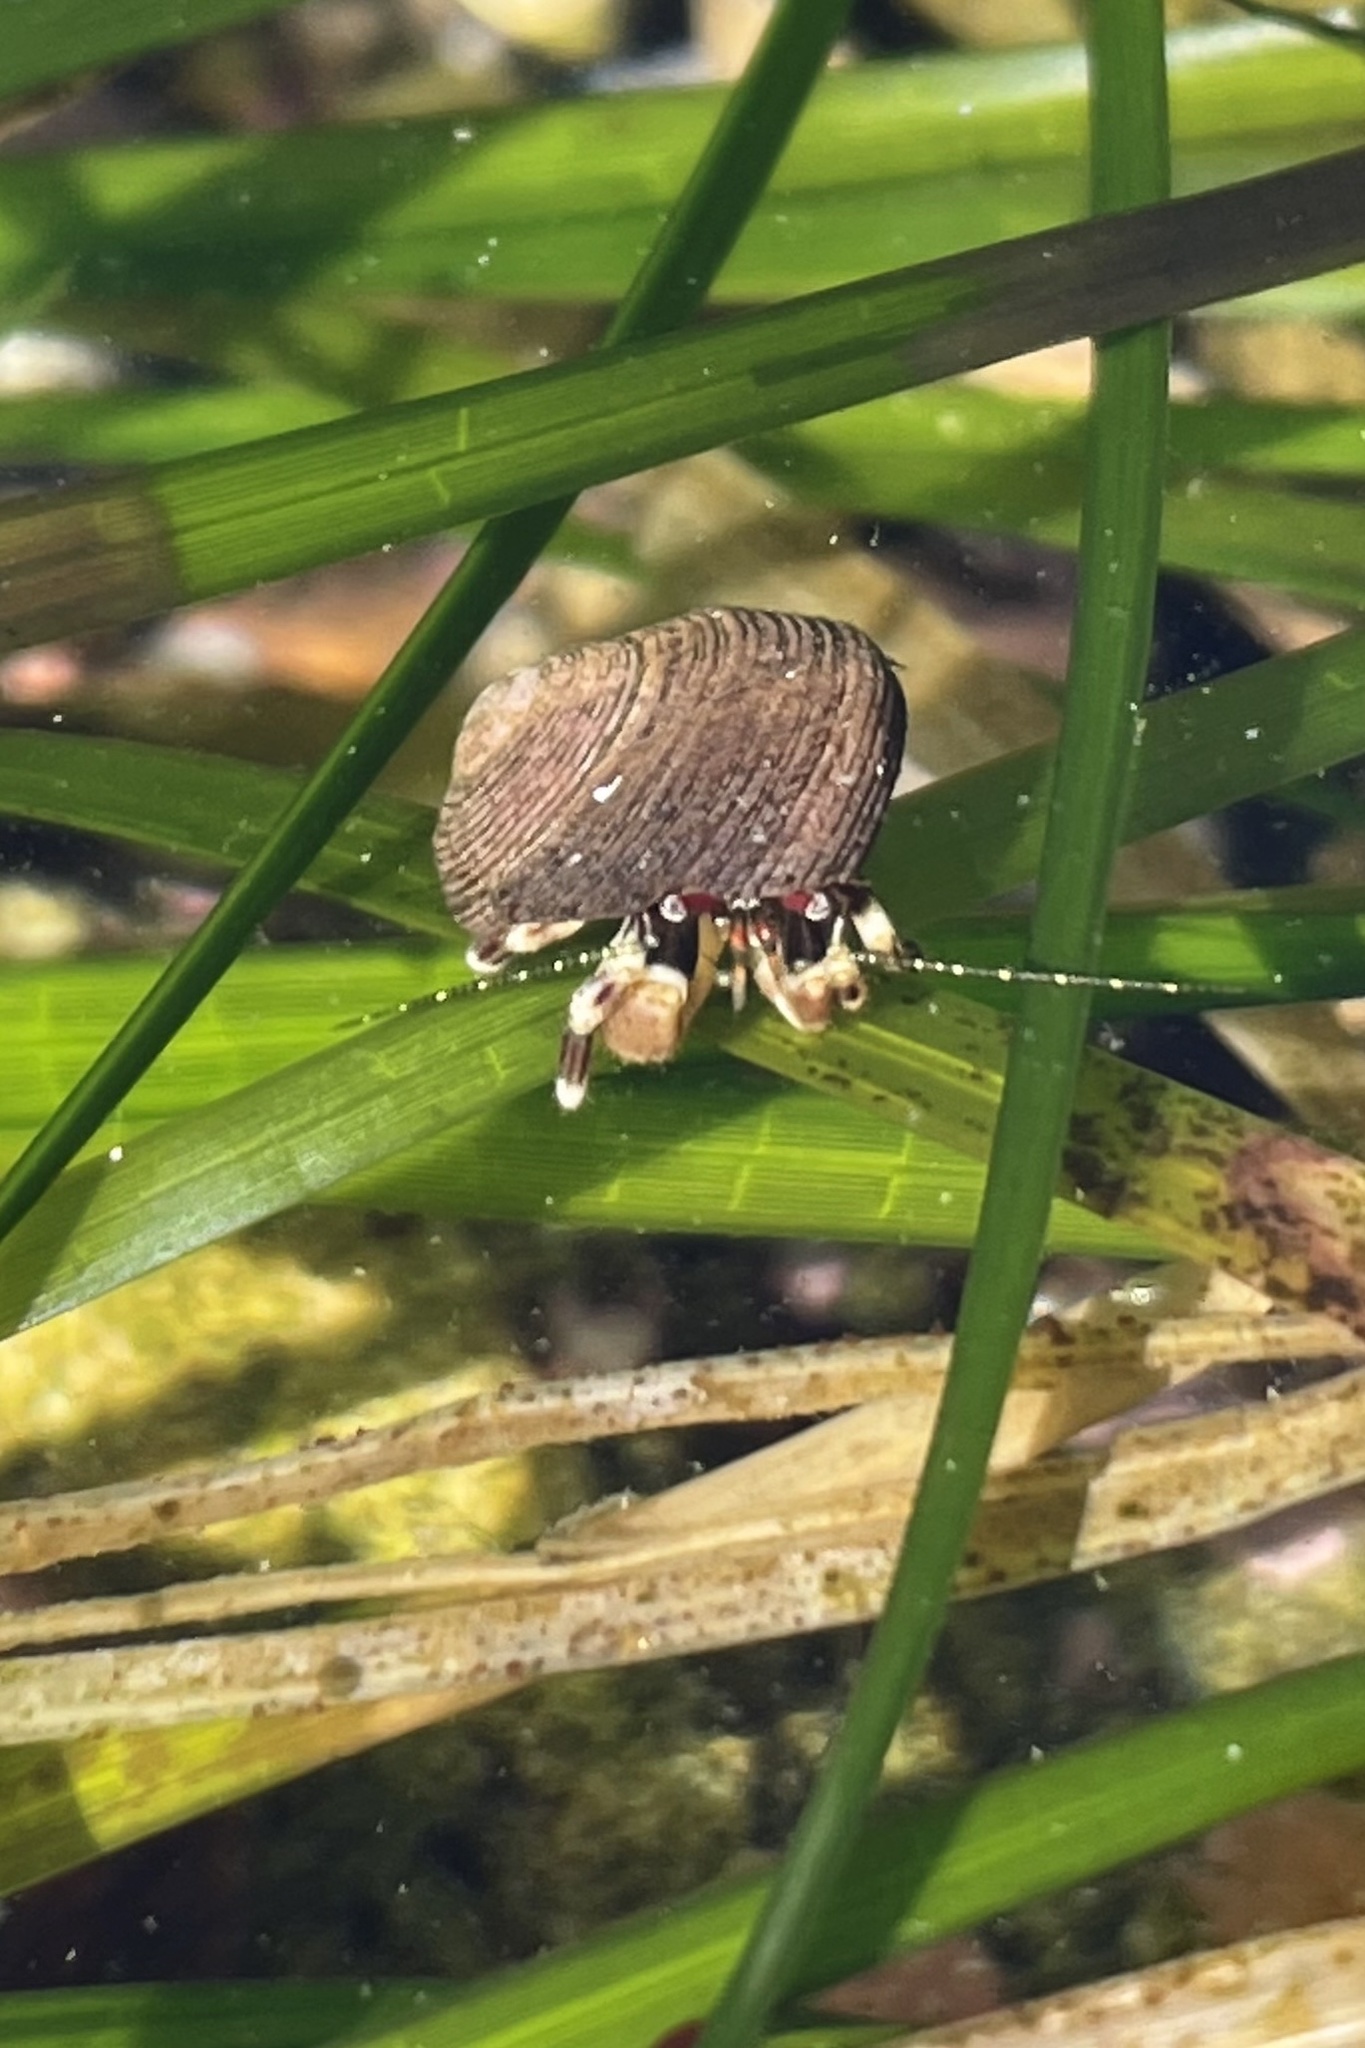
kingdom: Animalia
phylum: Arthropoda
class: Malacostraca
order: Decapoda
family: Paguridae
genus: Pagurus
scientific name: Pagurus venturensis
